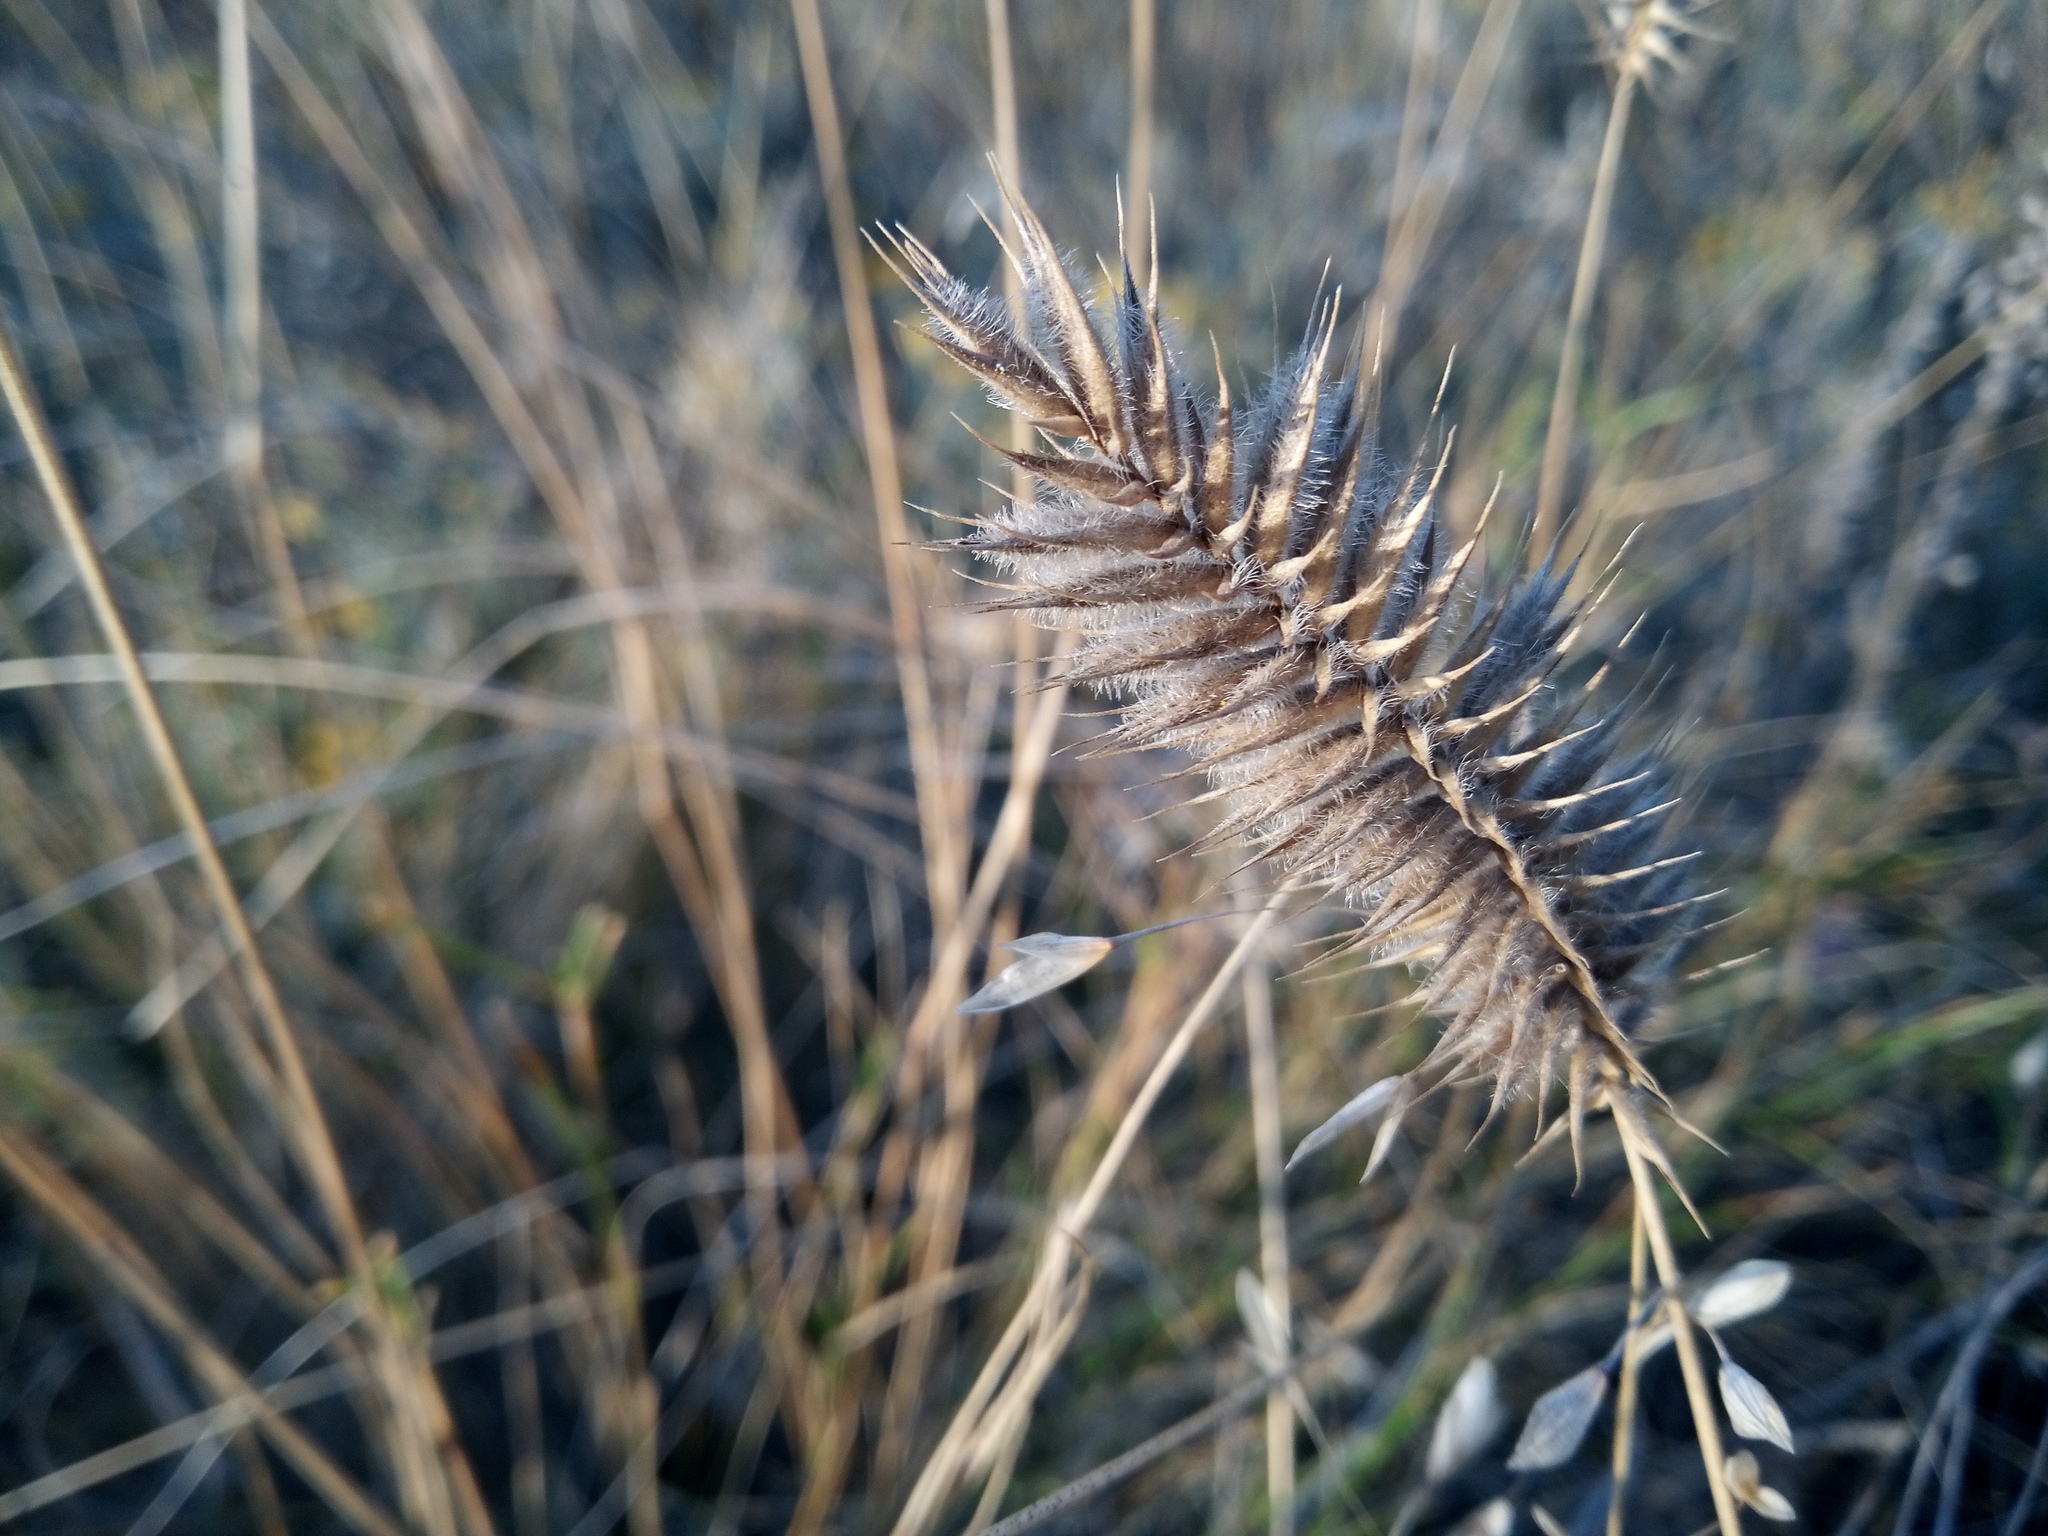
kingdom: Plantae
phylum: Tracheophyta
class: Liliopsida
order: Poales
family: Poaceae
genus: Agropyron
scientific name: Agropyron cristatum
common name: Crested wheatgrass
